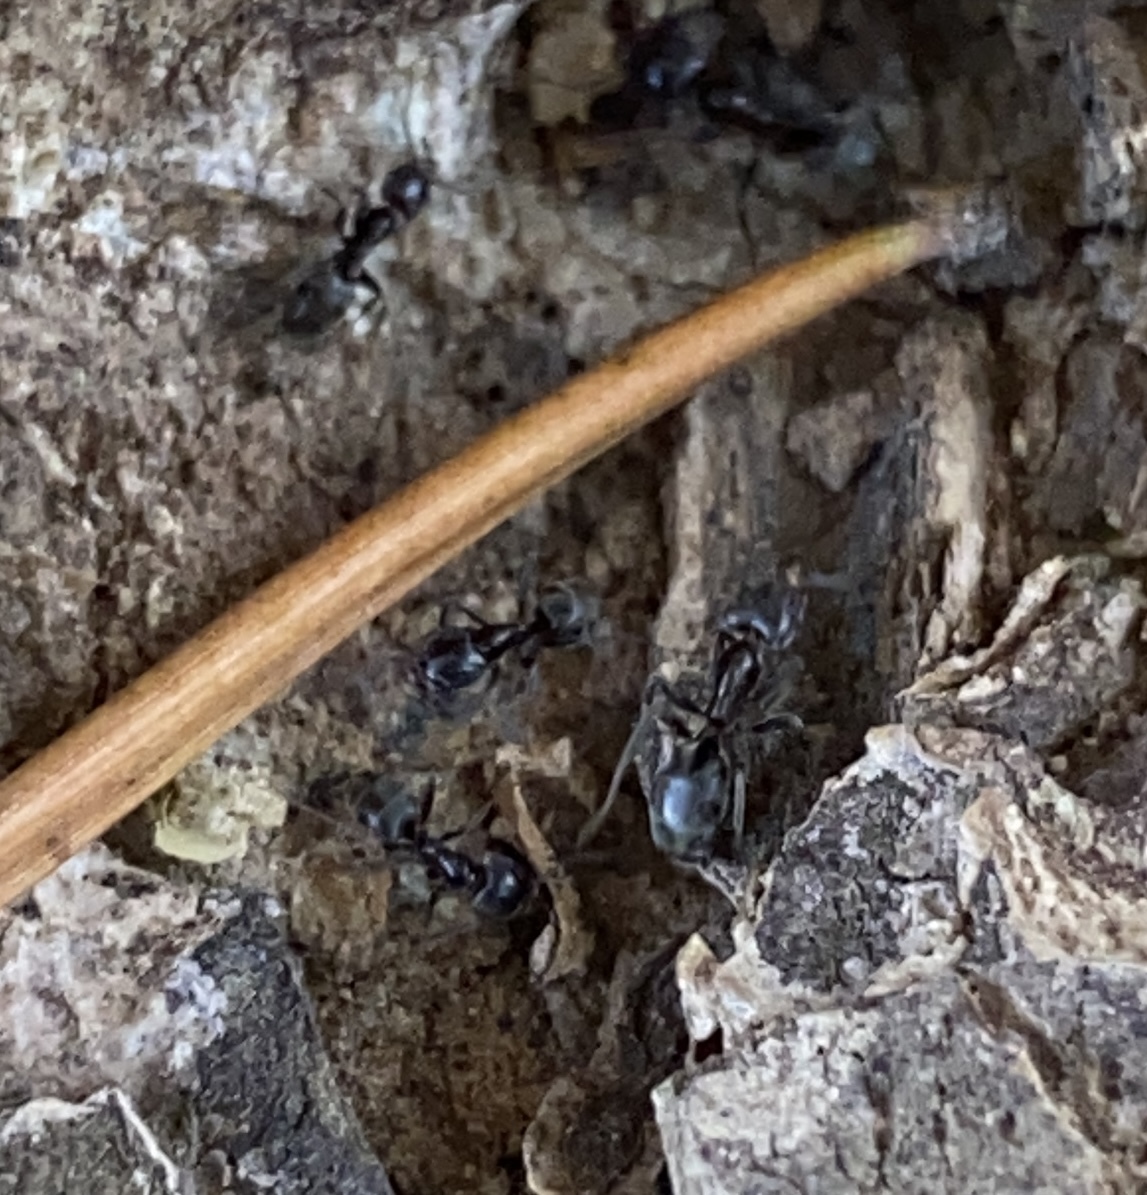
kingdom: Animalia
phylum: Arthropoda
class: Insecta
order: Hymenoptera
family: Formicidae
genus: Liometopum
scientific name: Liometopum luctuosum
